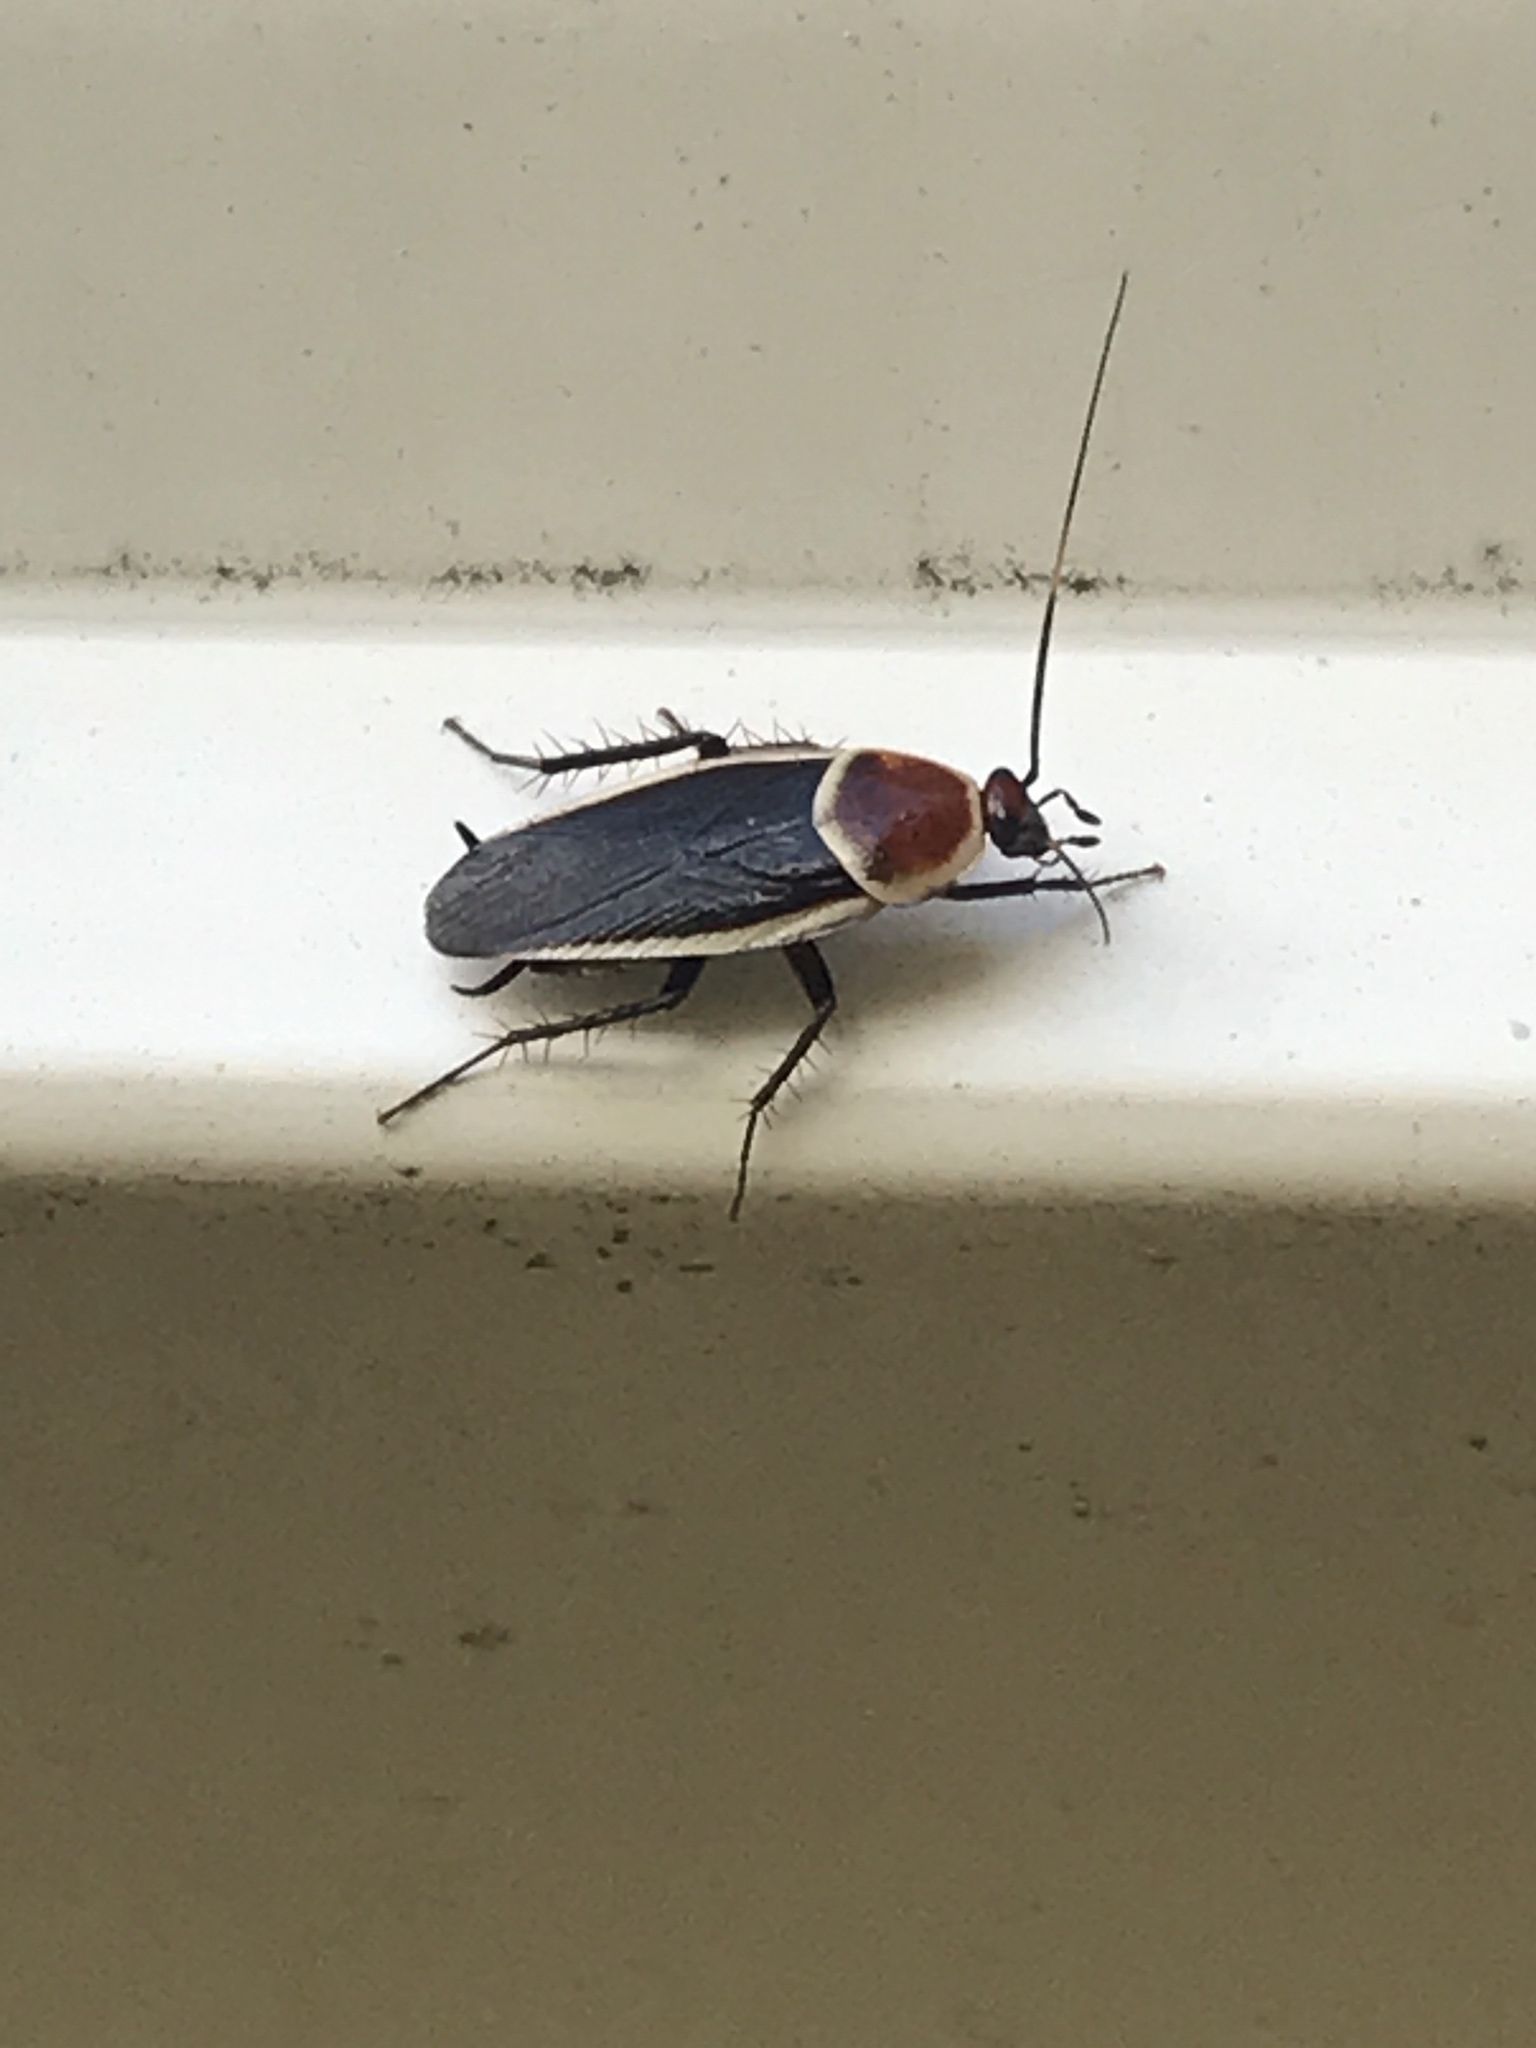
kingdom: Animalia
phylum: Arthropoda
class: Insecta
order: Blattodea
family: Ectobiidae
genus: Pseudomops
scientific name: Pseudomops septentrionalis
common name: Pale-bordered field cockroach
